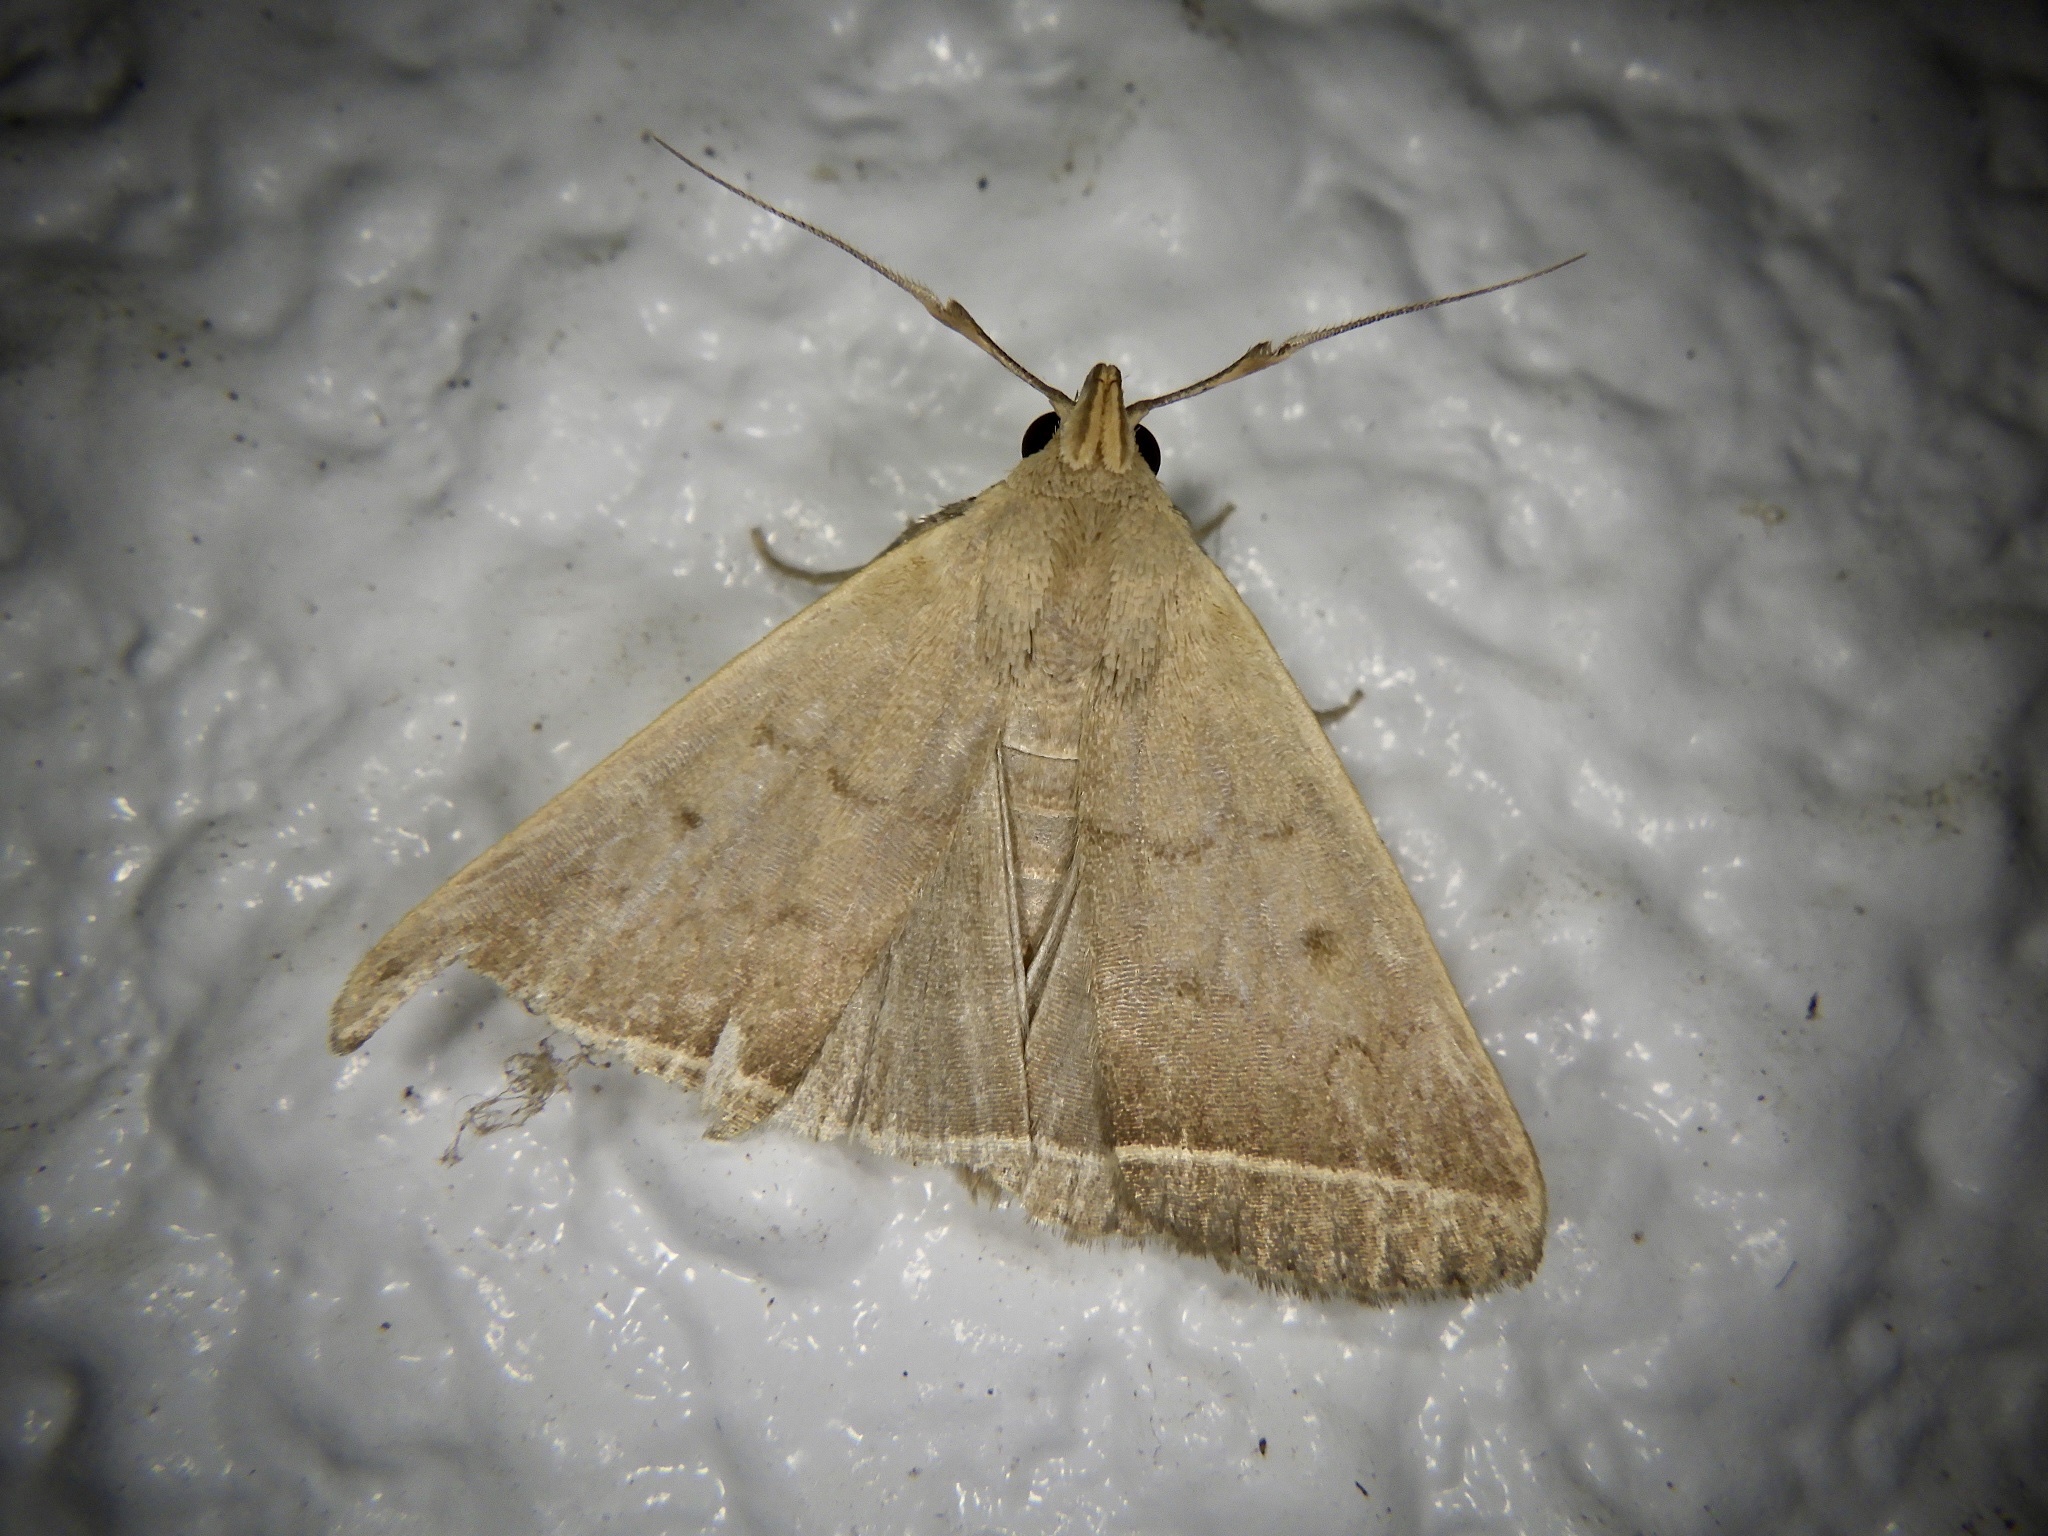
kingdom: Animalia
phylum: Arthropoda
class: Insecta
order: Lepidoptera
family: Erebidae
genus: Simplicia
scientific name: Simplicia xanthoma
